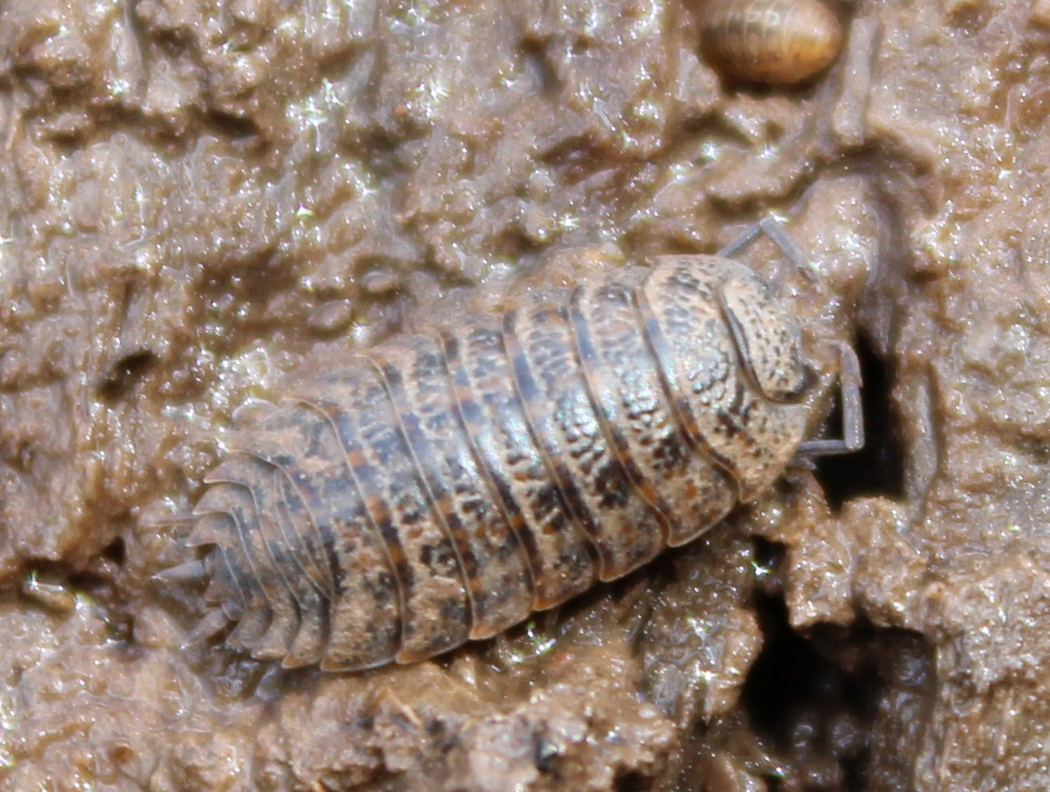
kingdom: Animalia
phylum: Arthropoda
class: Malacostraca
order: Isopoda
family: Trachelipodidae
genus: Trachelipus
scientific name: Trachelipus rathkii
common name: Isopod
